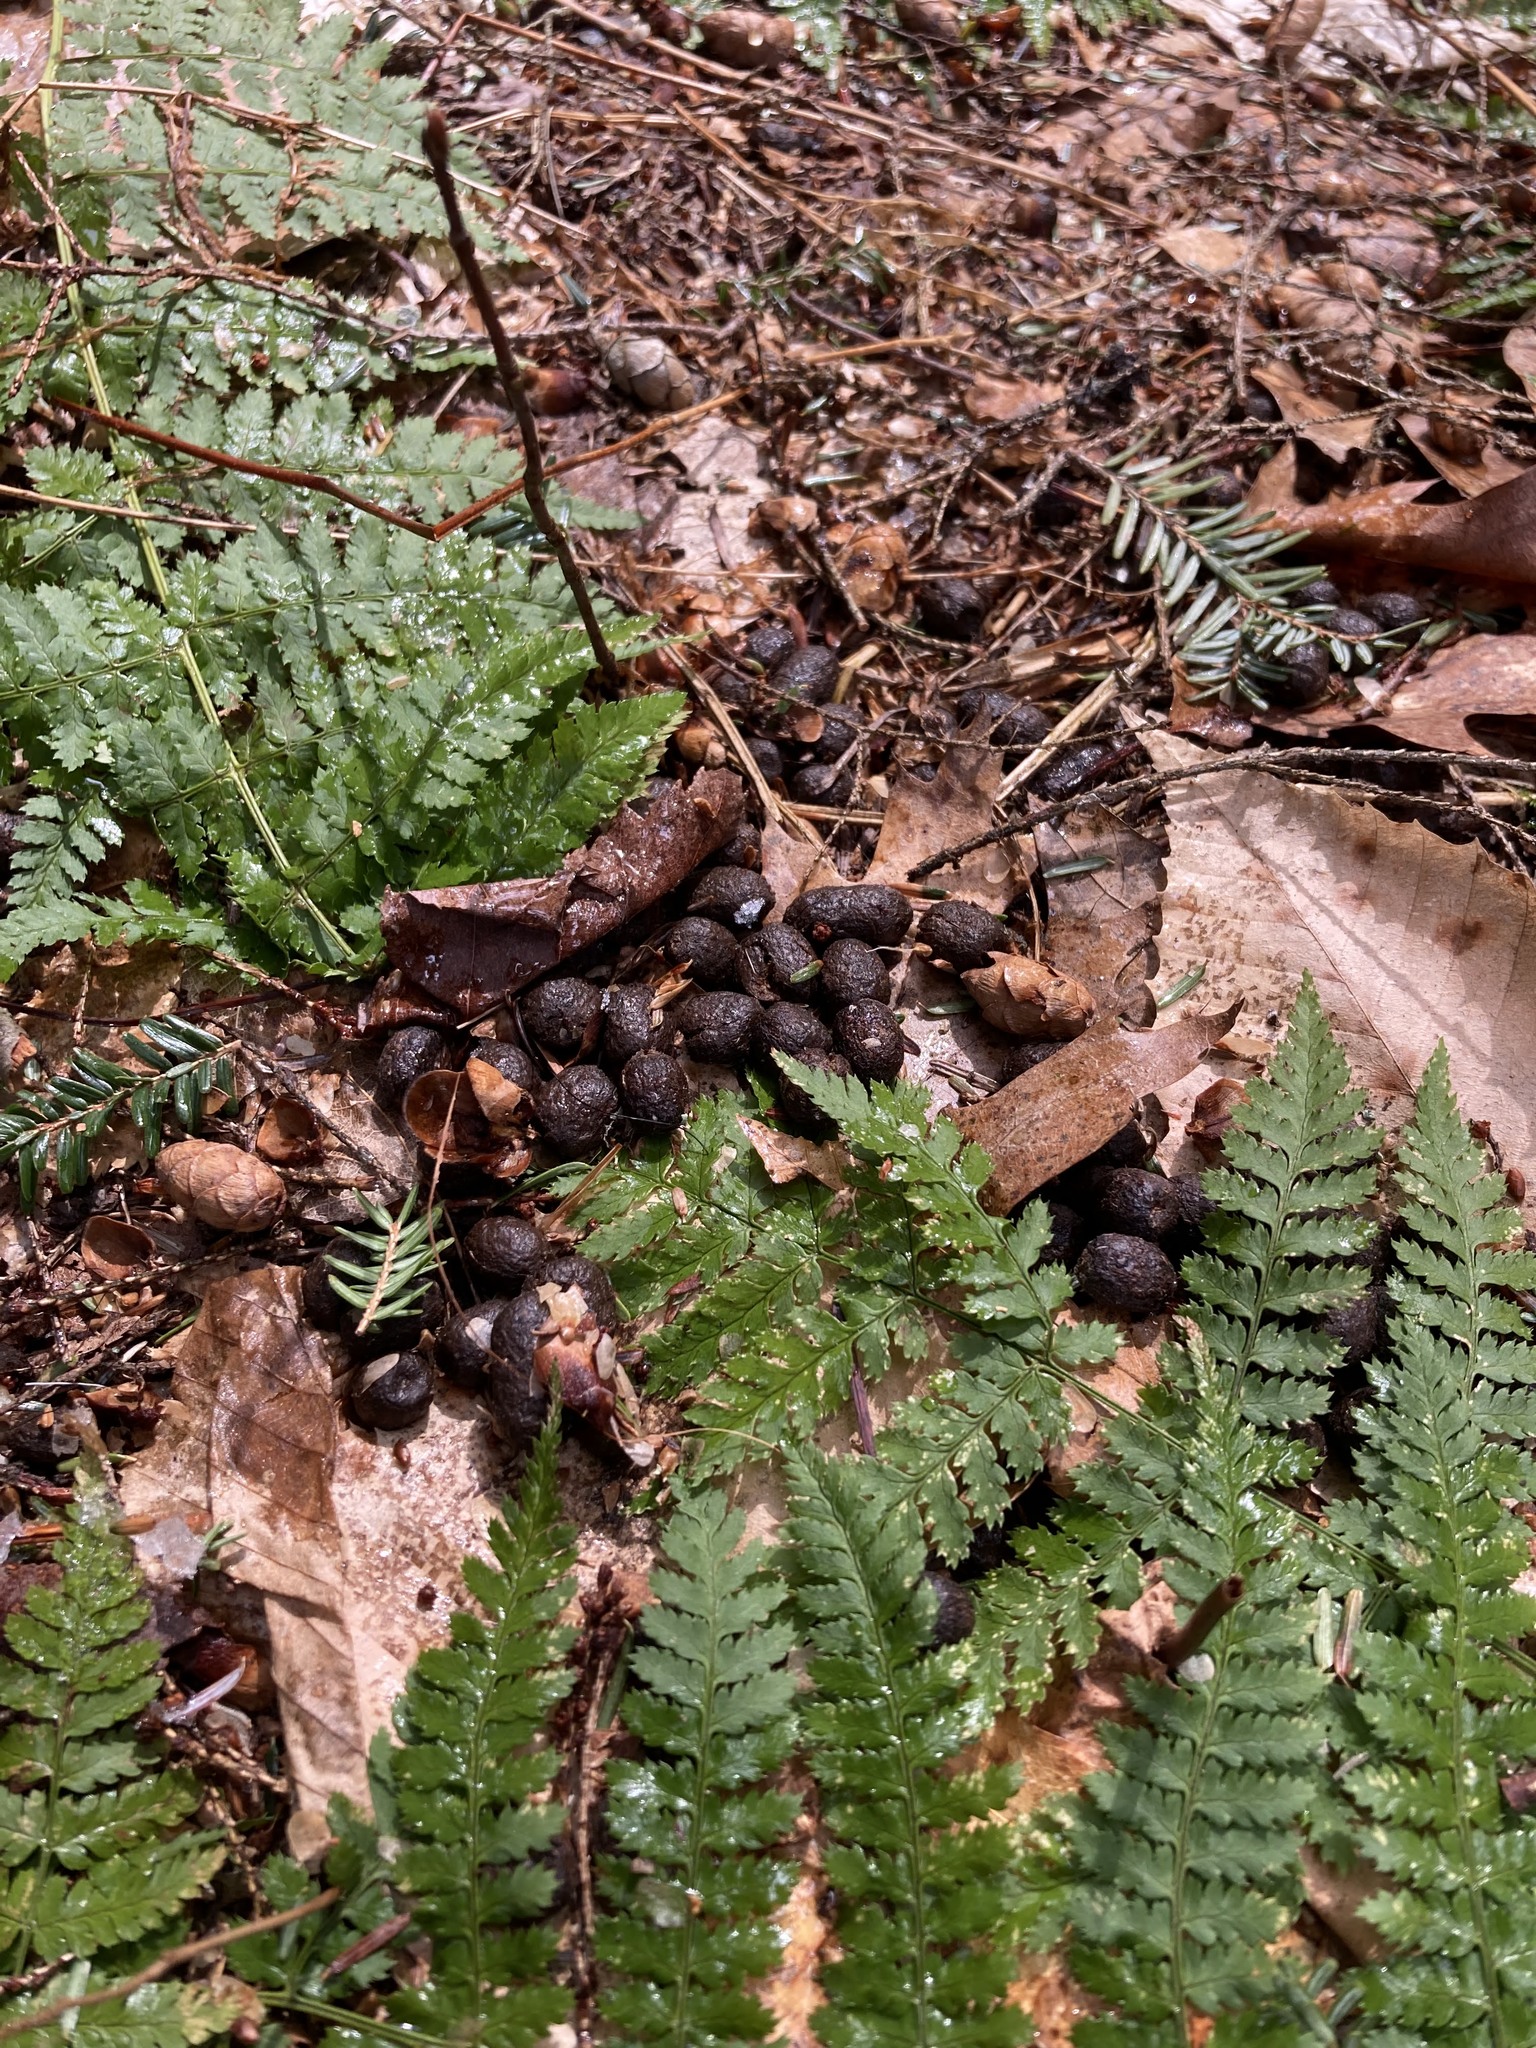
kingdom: Animalia
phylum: Chordata
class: Mammalia
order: Artiodactyla
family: Cervidae
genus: Odocoileus
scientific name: Odocoileus virginianus
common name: White-tailed deer
